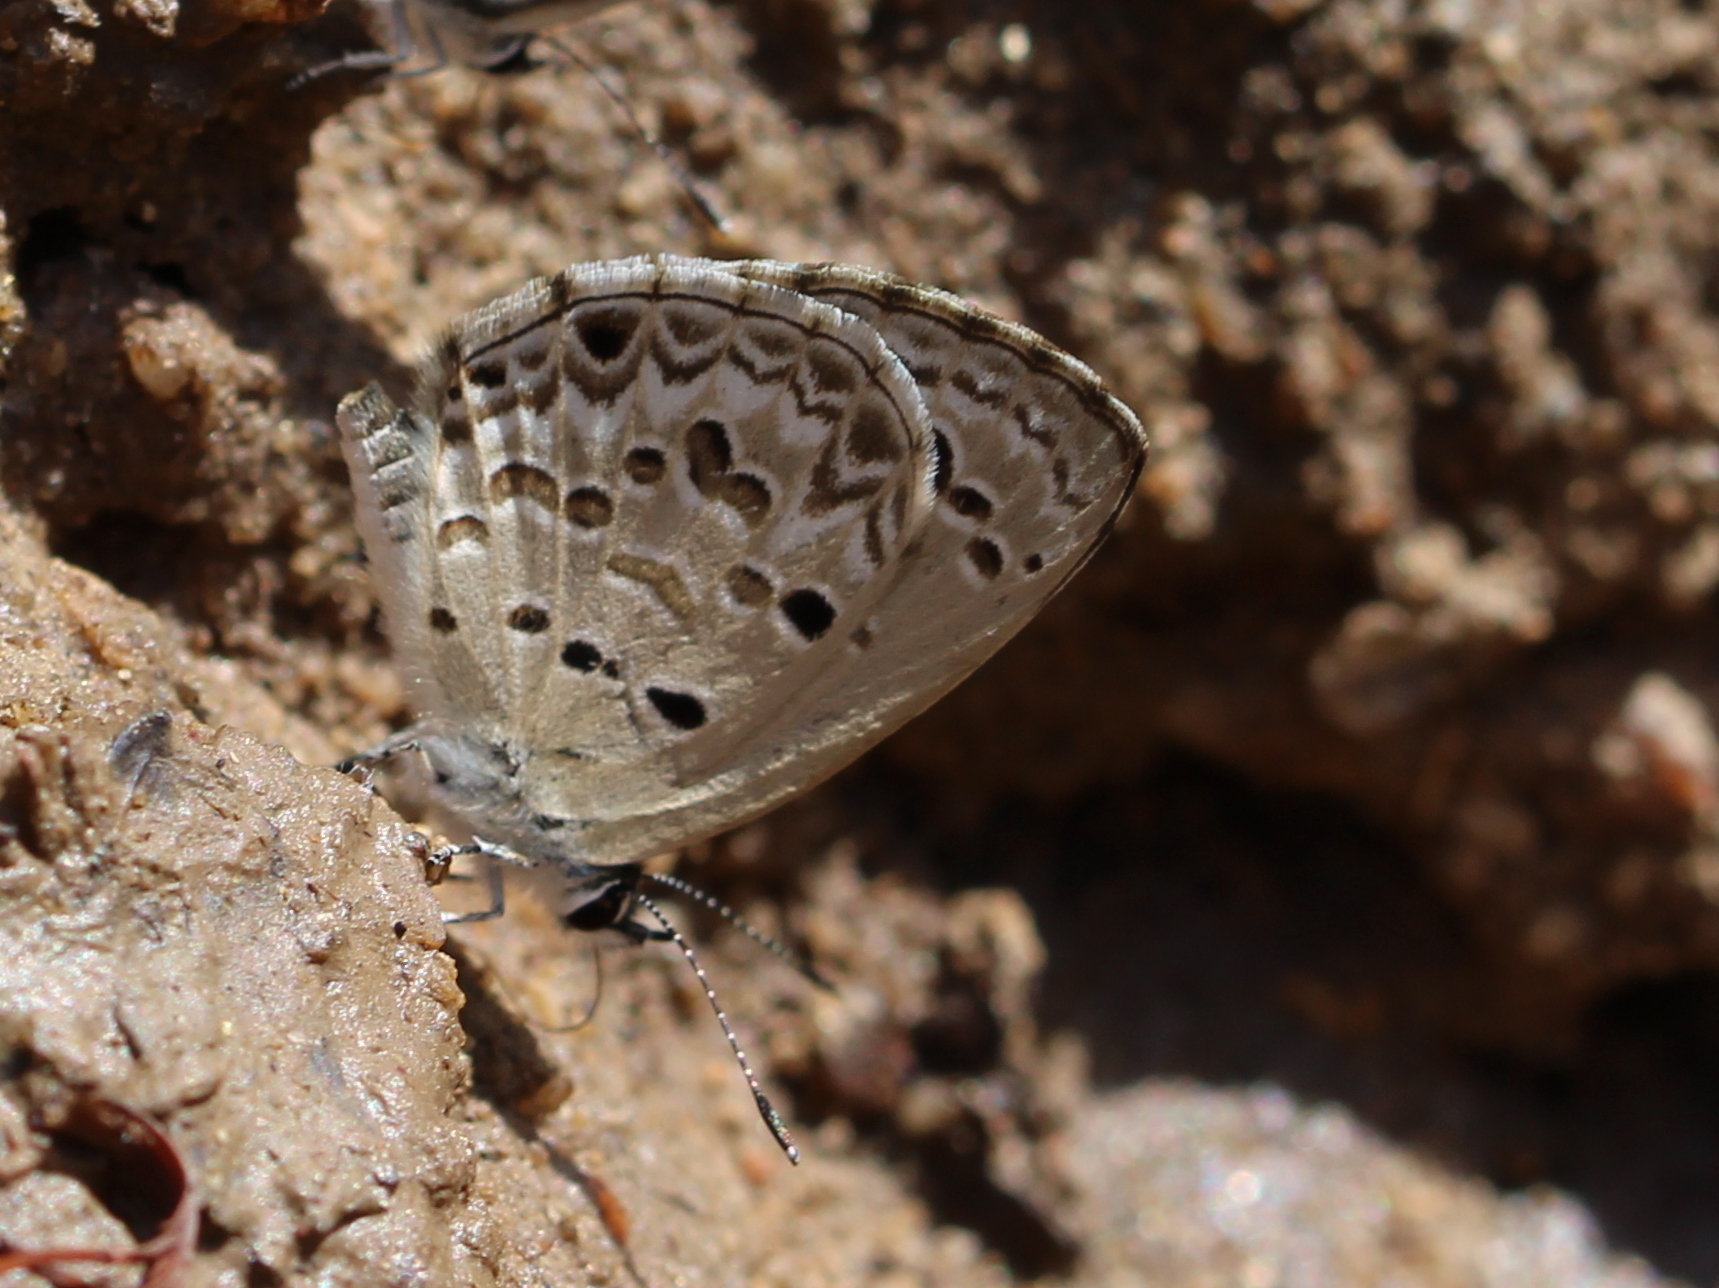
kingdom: Animalia
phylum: Arthropoda
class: Insecta
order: Lepidoptera
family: Lycaenidae
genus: Chilades
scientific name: Chilades laius
